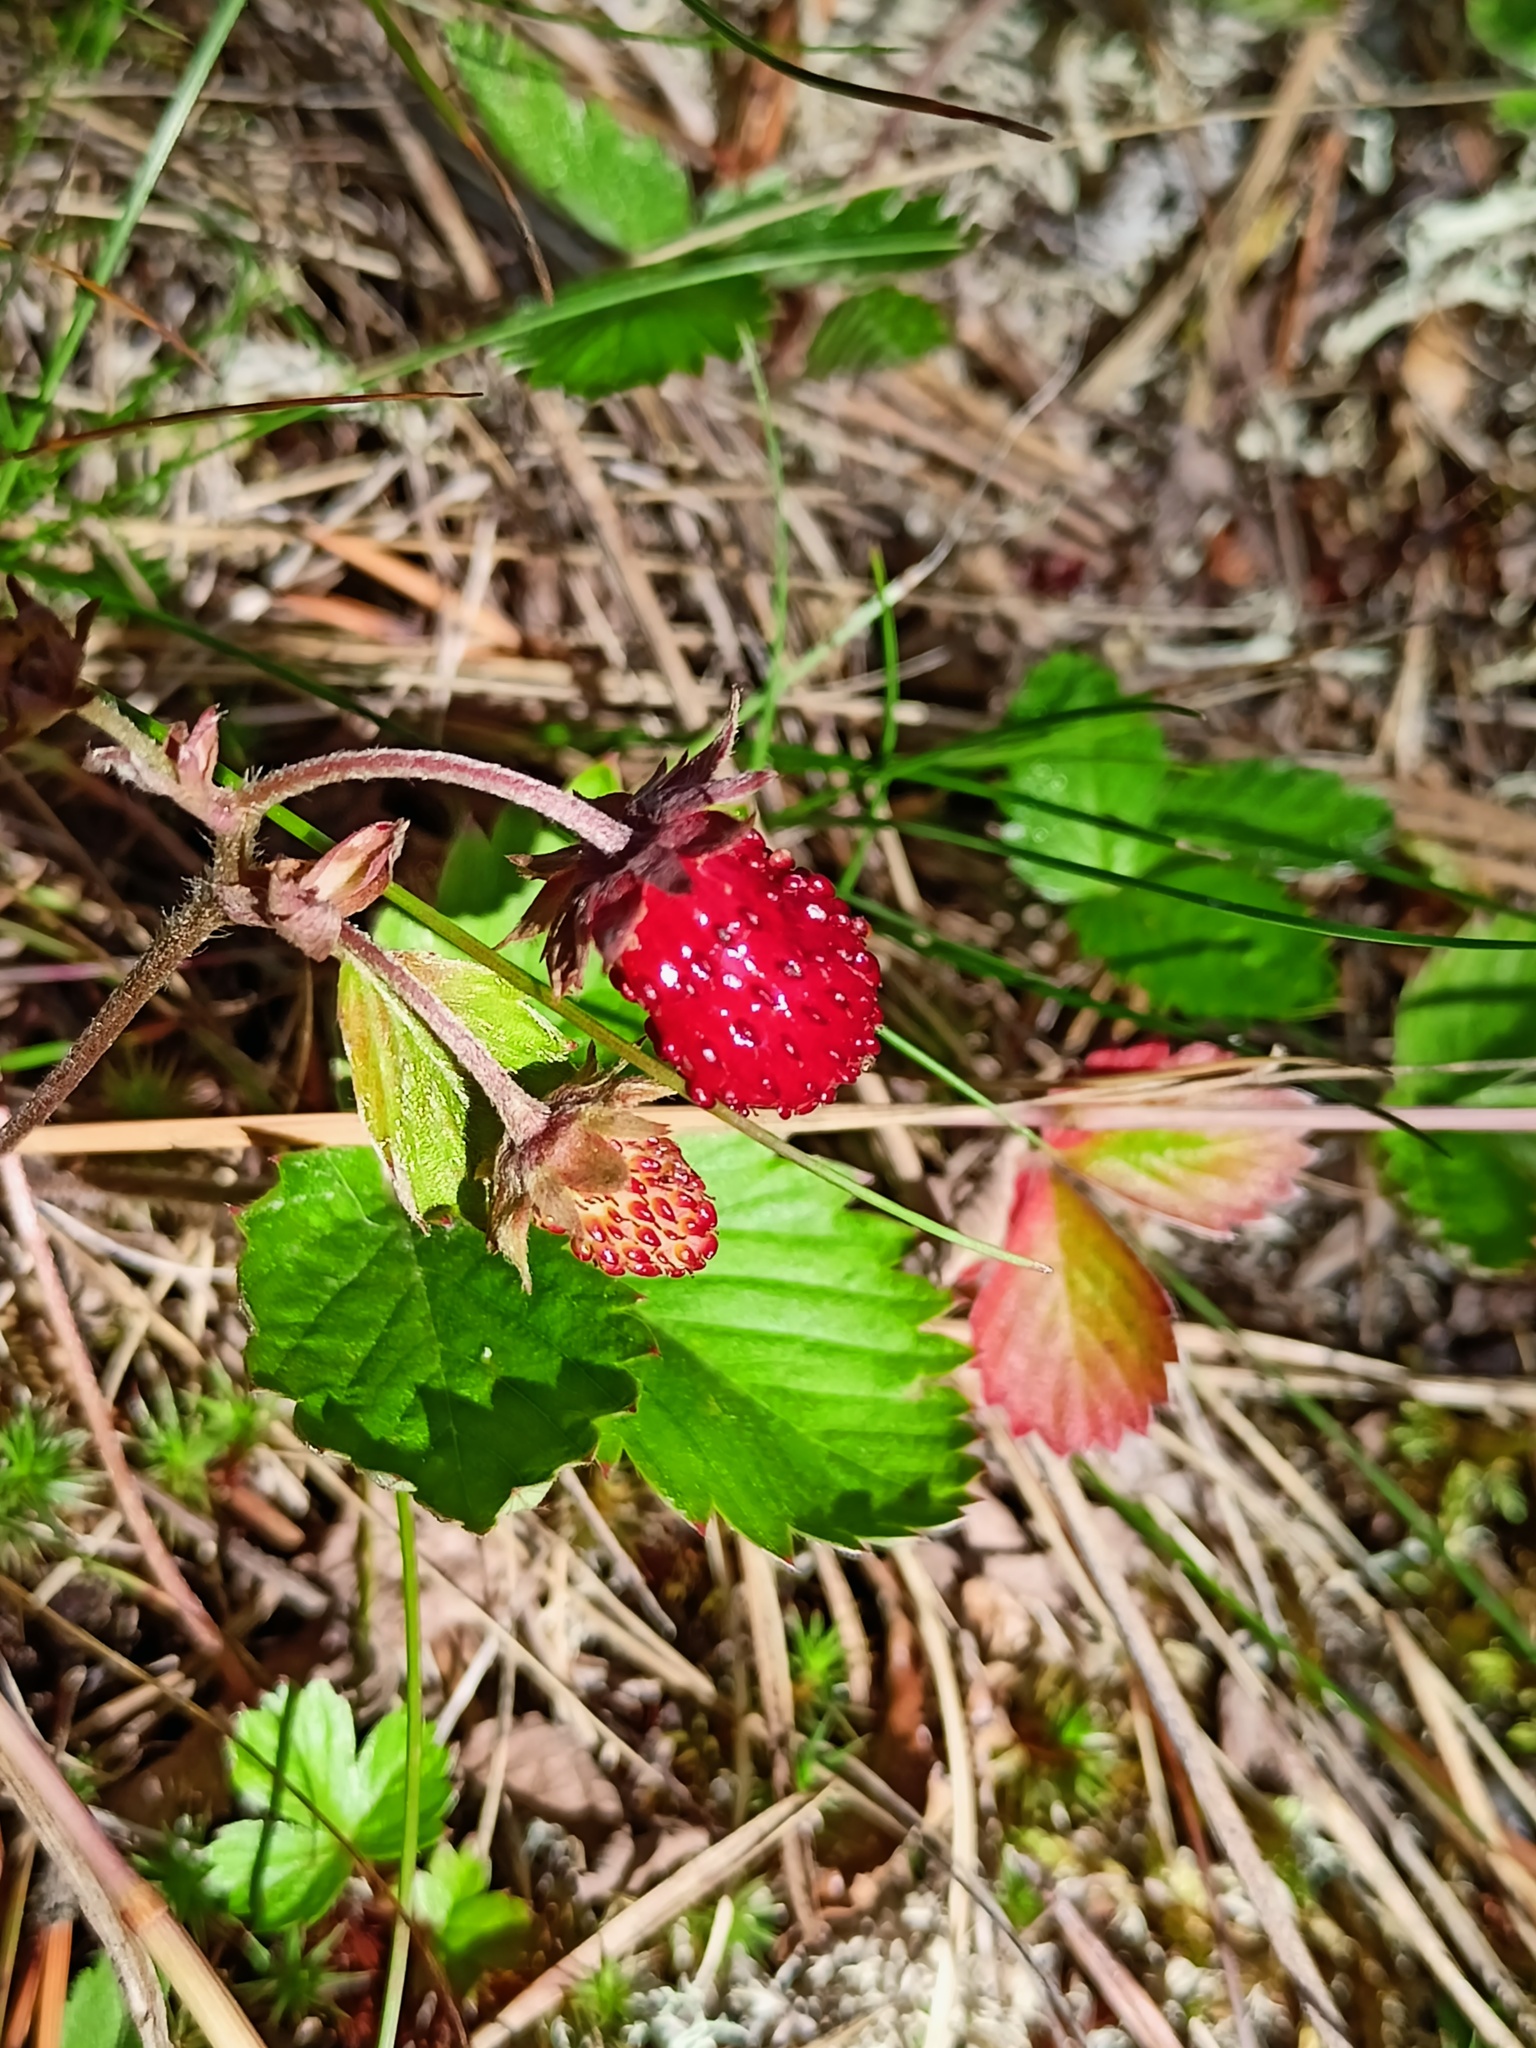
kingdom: Plantae
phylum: Tracheophyta
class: Magnoliopsida
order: Rosales
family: Rosaceae
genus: Fragaria
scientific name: Fragaria vesca
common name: Wild strawberry
